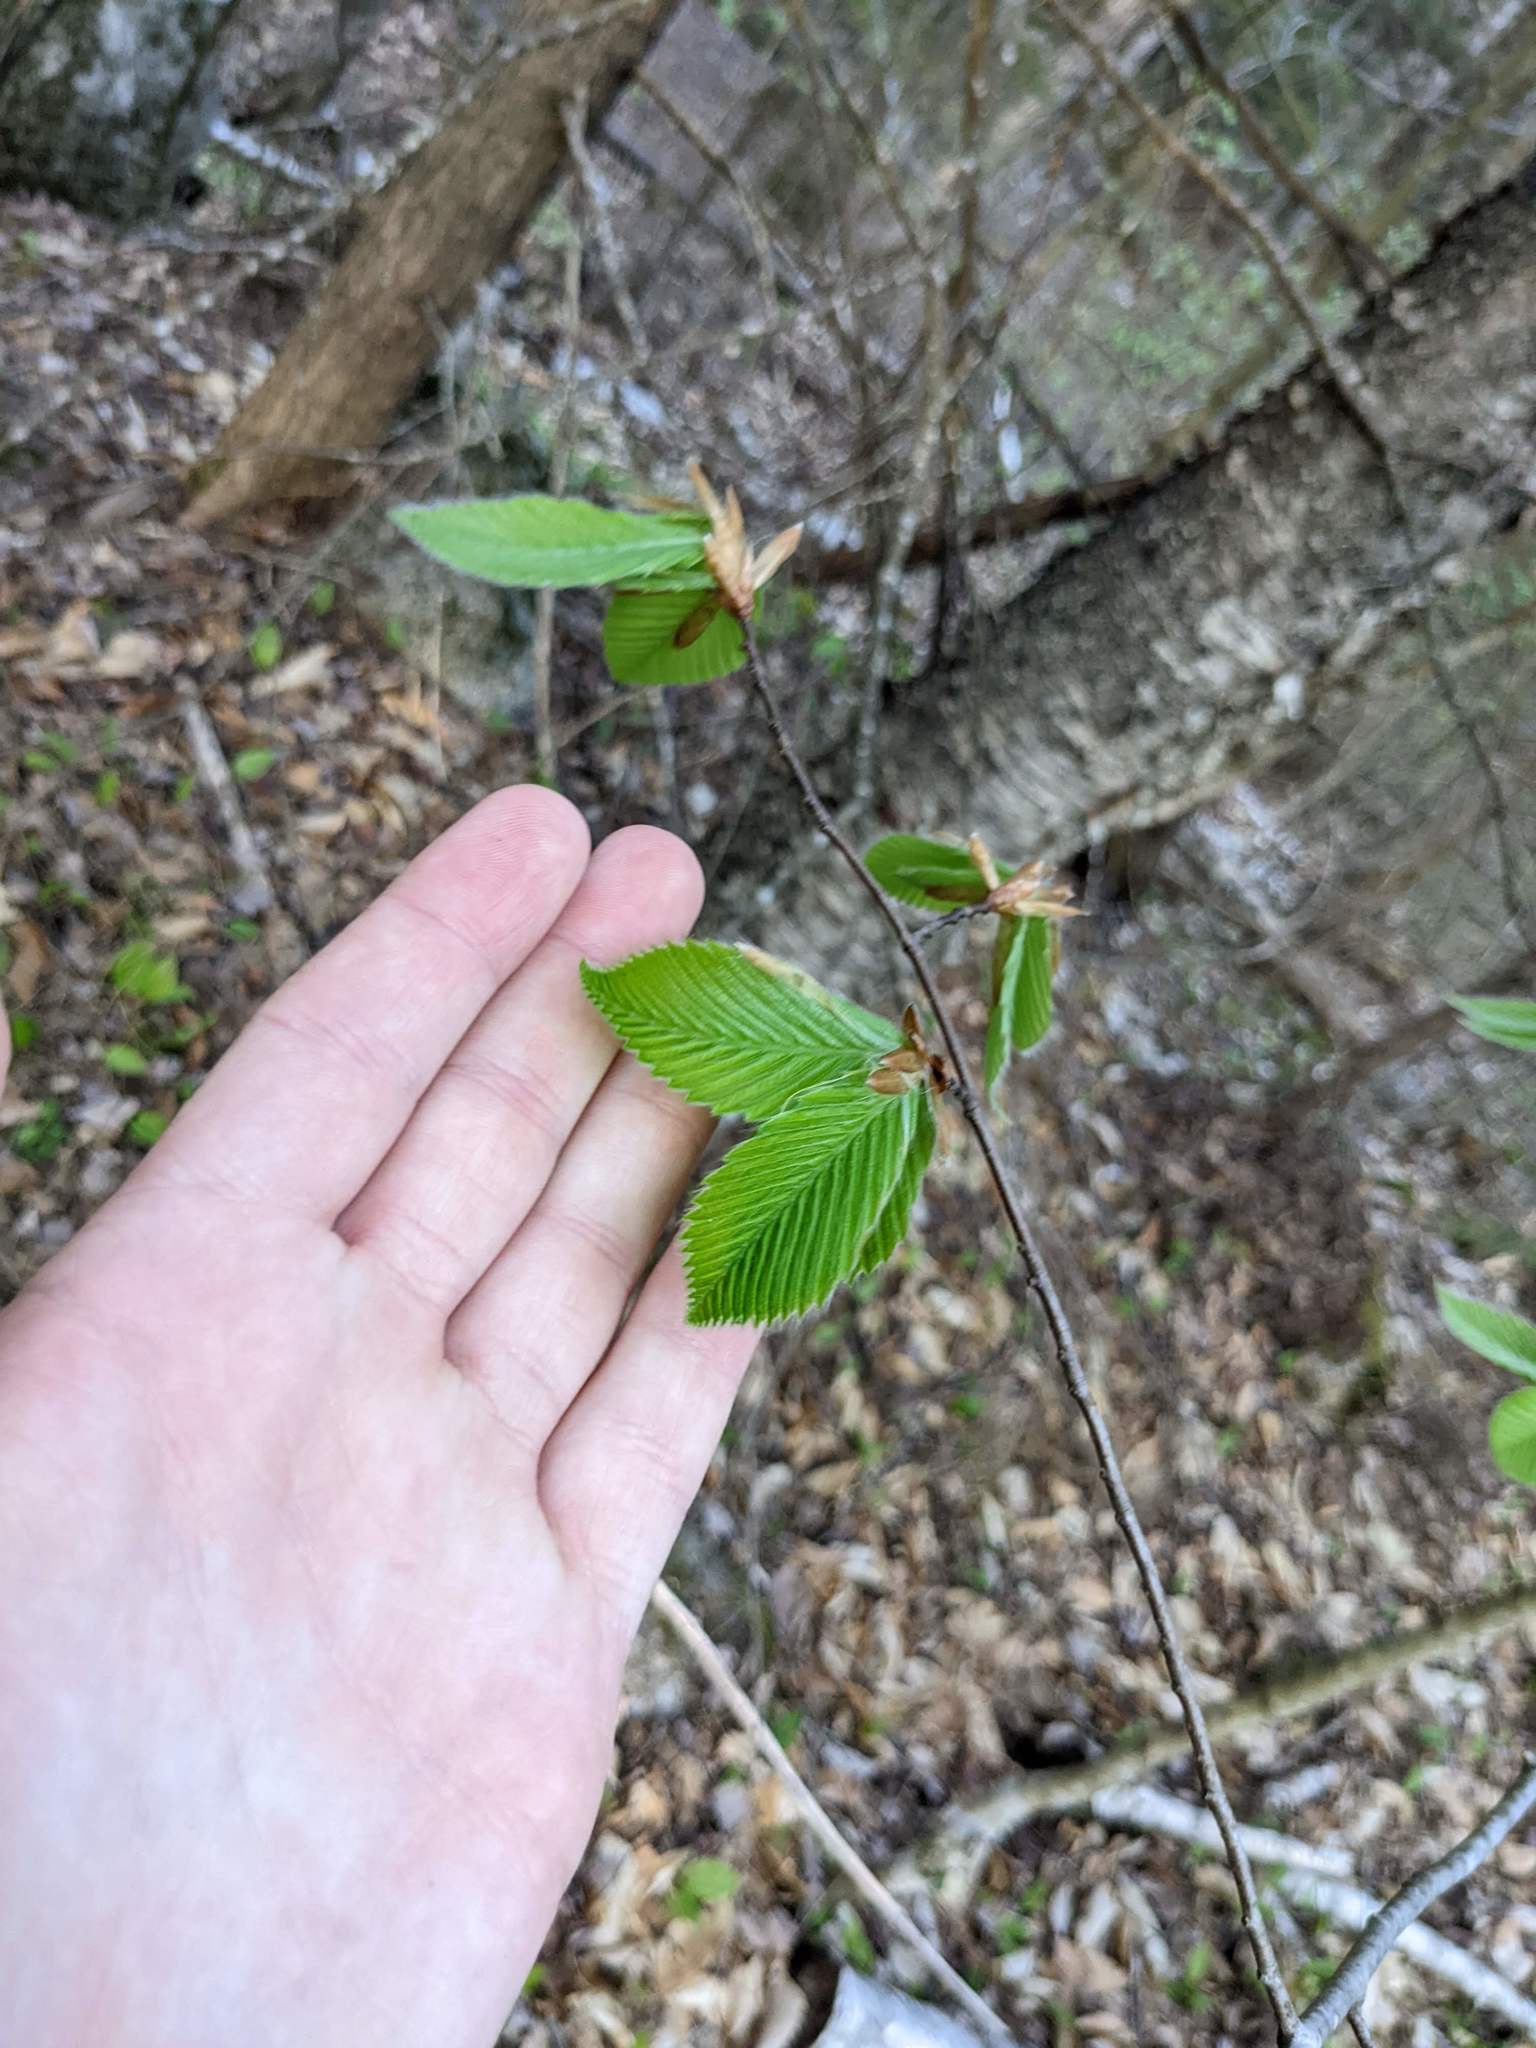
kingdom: Plantae
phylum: Tracheophyta
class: Magnoliopsida
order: Fagales
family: Fagaceae
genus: Fagus
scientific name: Fagus grandifolia
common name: American beech
